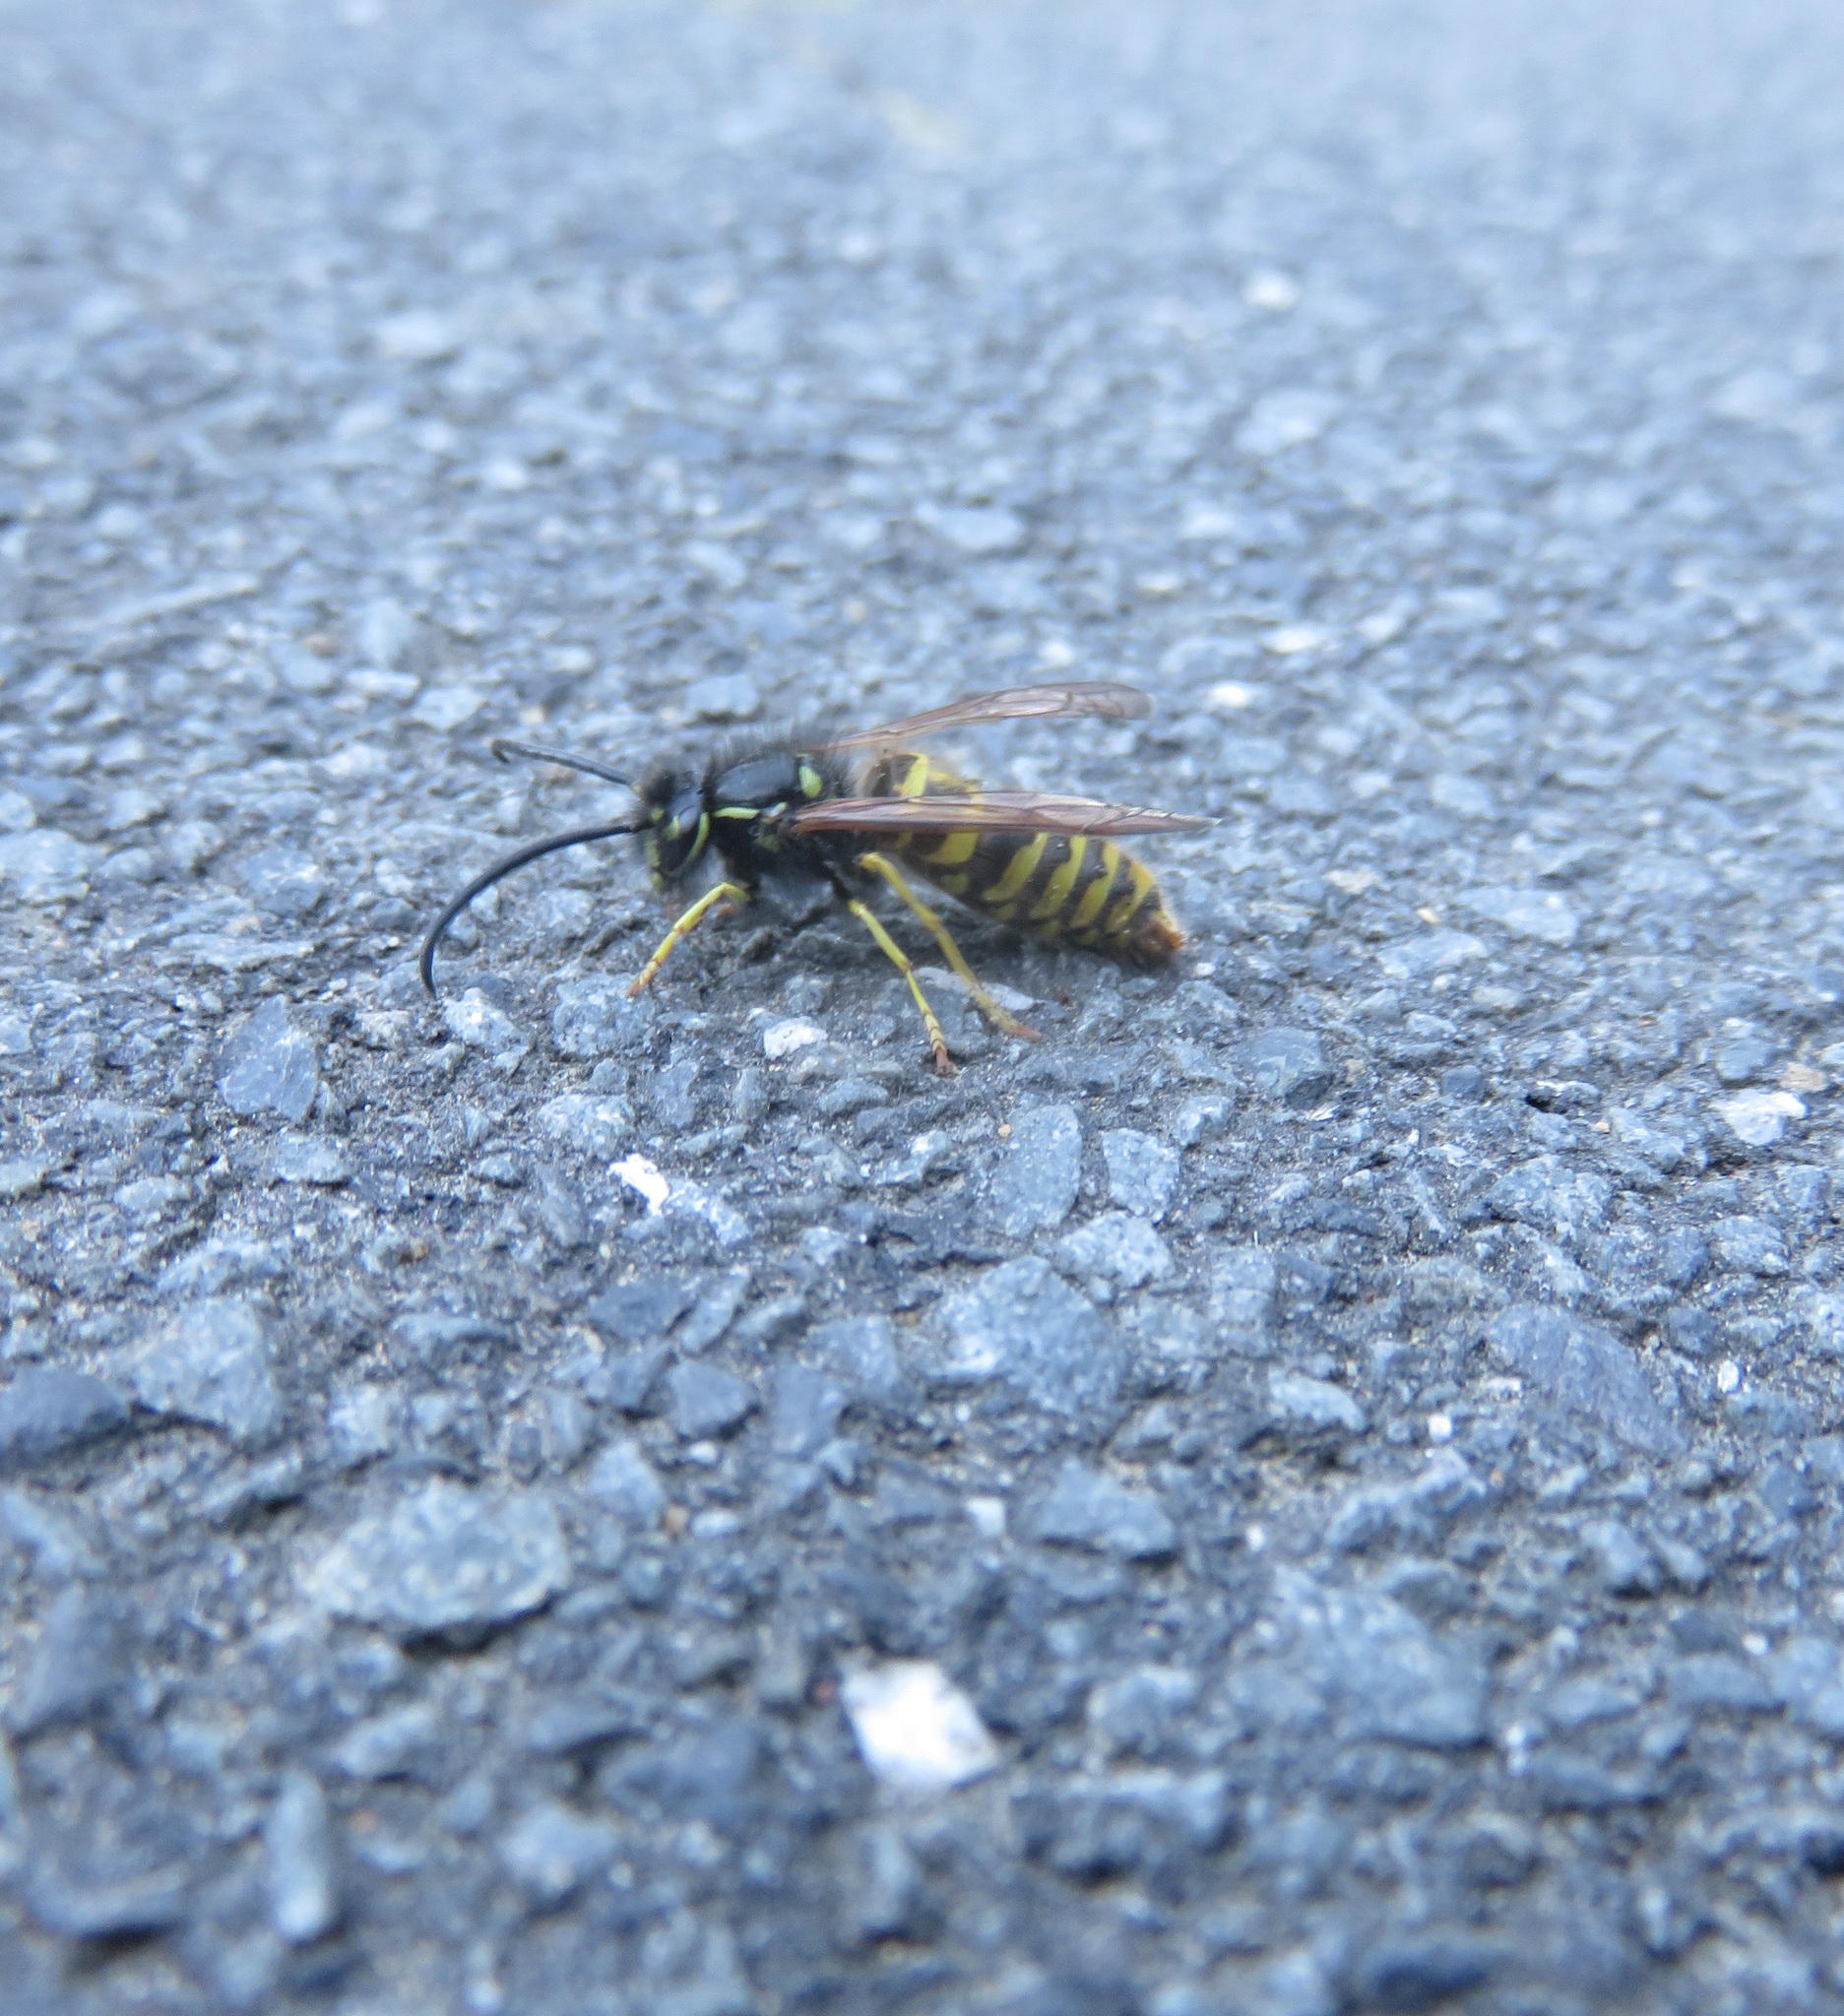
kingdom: Animalia
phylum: Arthropoda
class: Insecta
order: Hymenoptera
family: Vespidae
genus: Vespula
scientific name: Vespula vulgaris
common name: Common wasp
